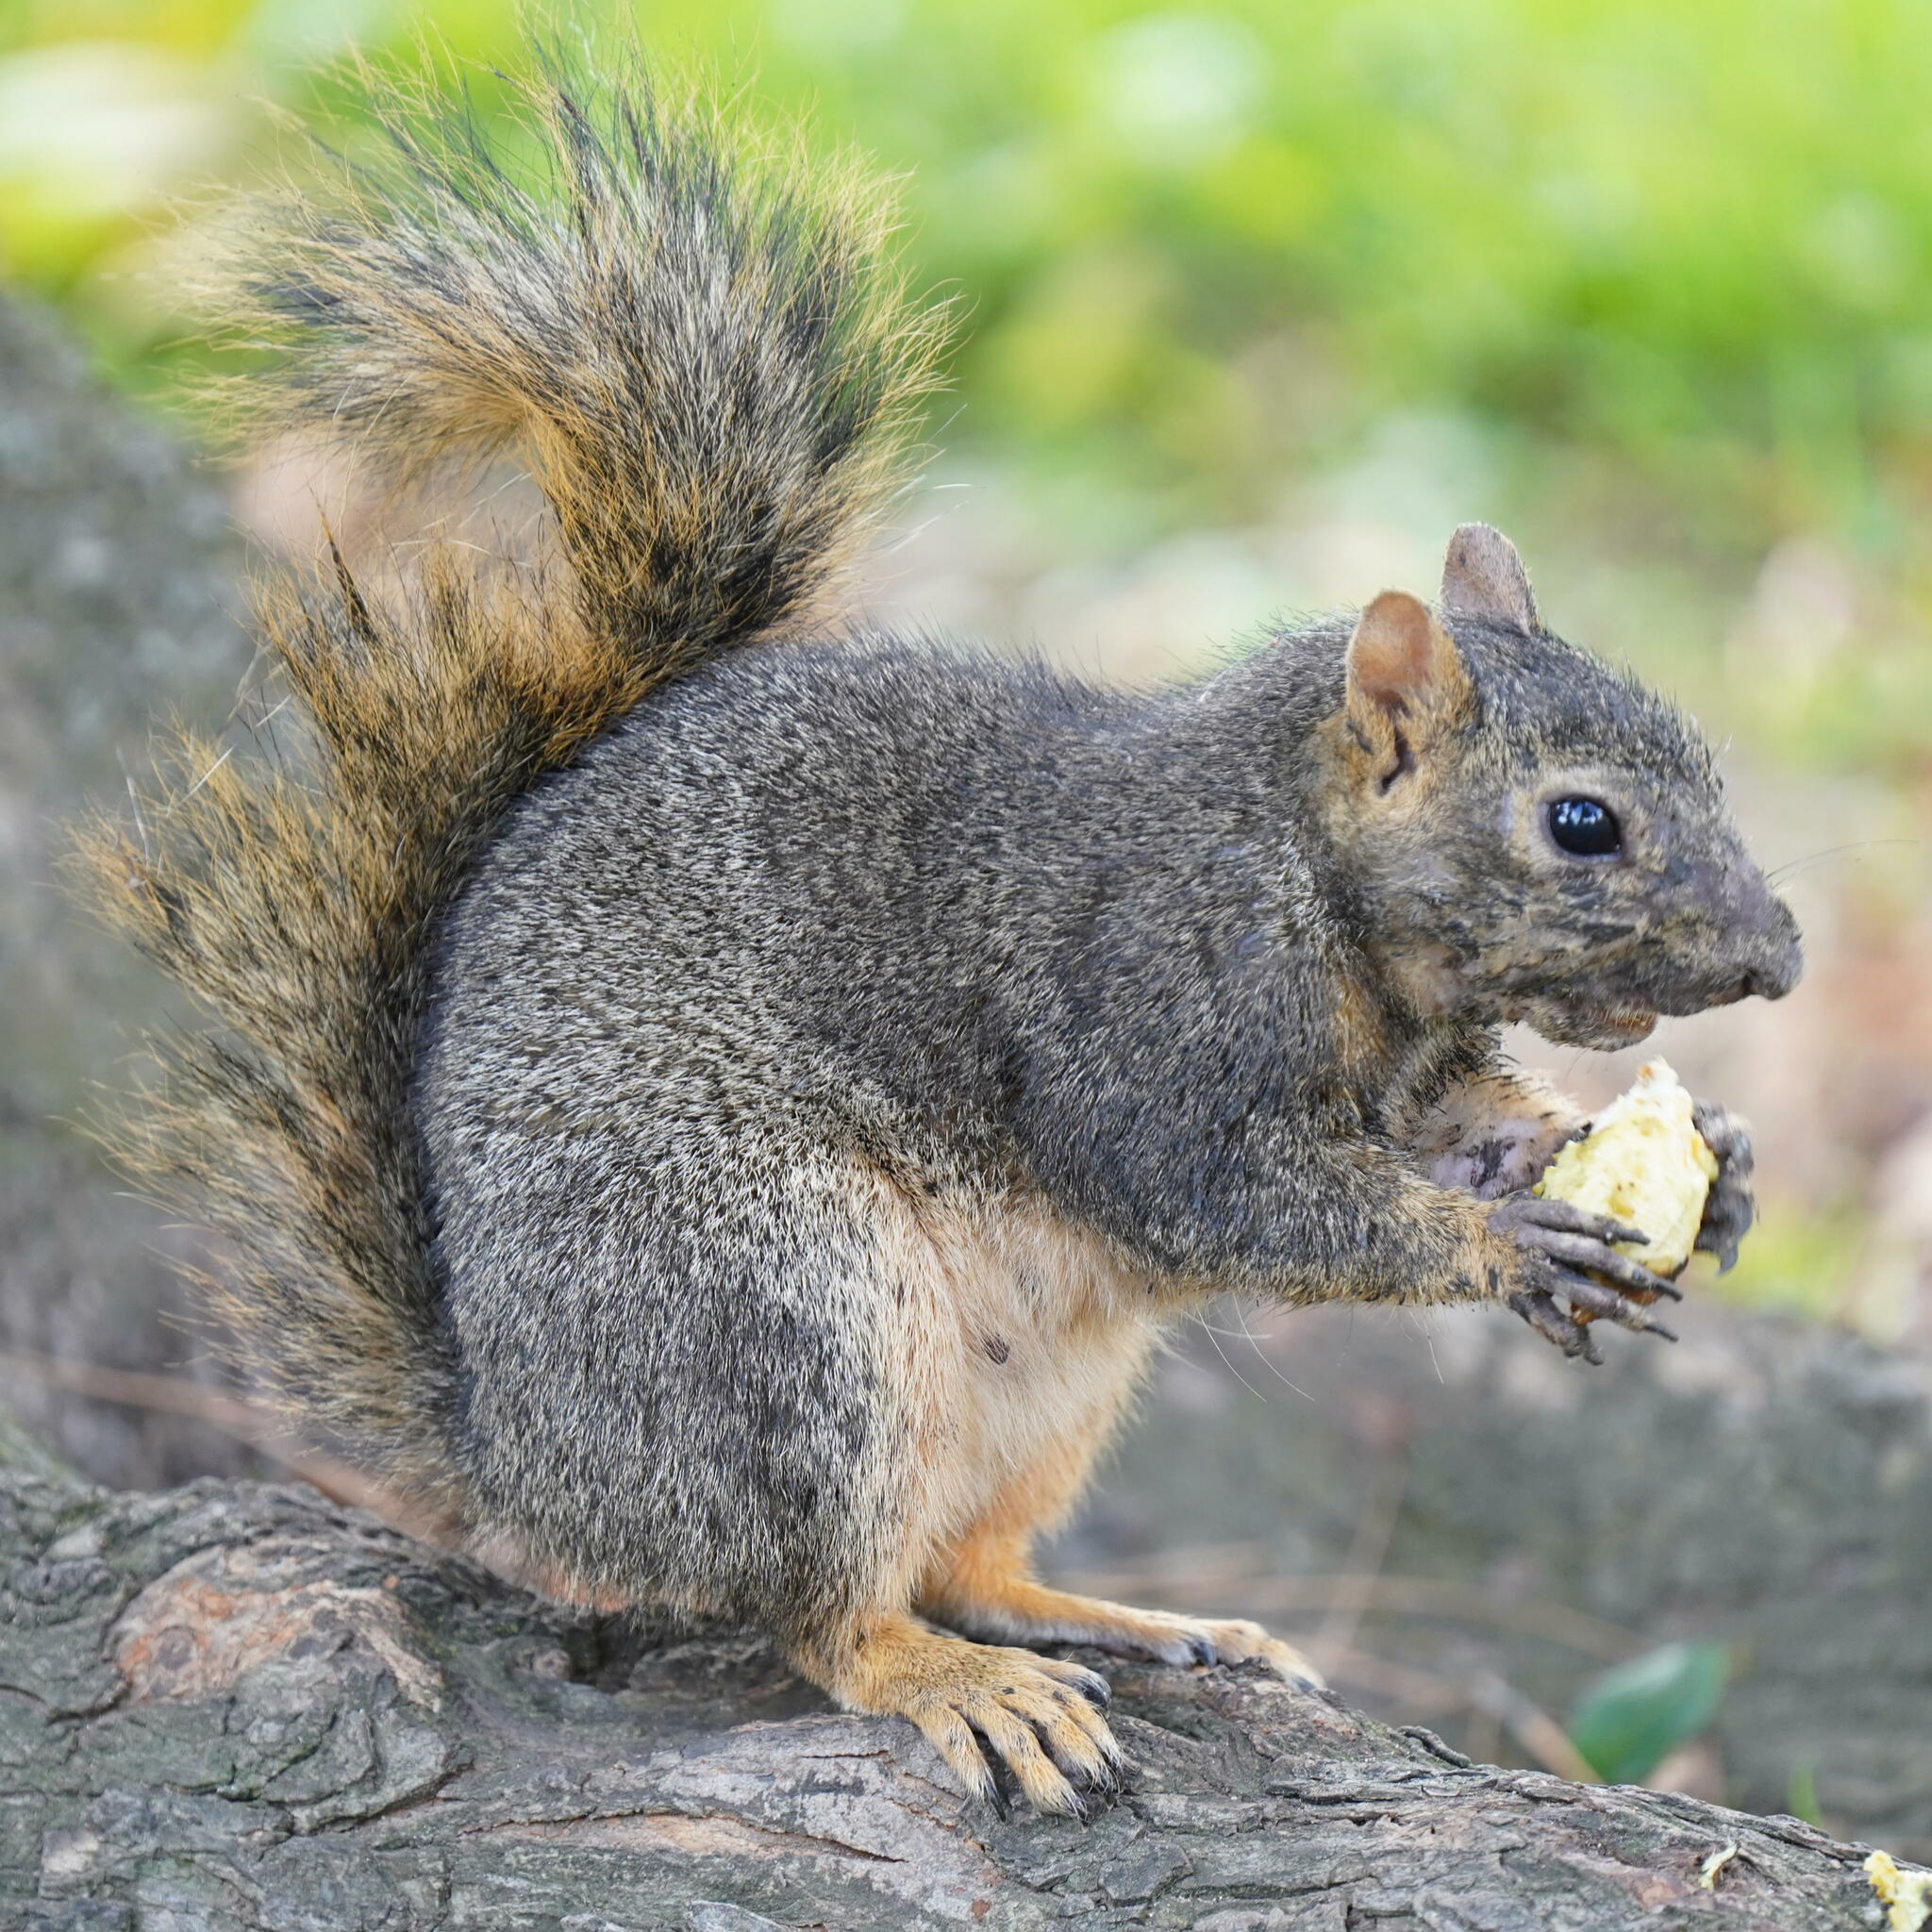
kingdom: Animalia
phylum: Chordata
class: Mammalia
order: Rodentia
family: Sciuridae
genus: Sciurus
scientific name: Sciurus niger
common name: Fox squirrel
